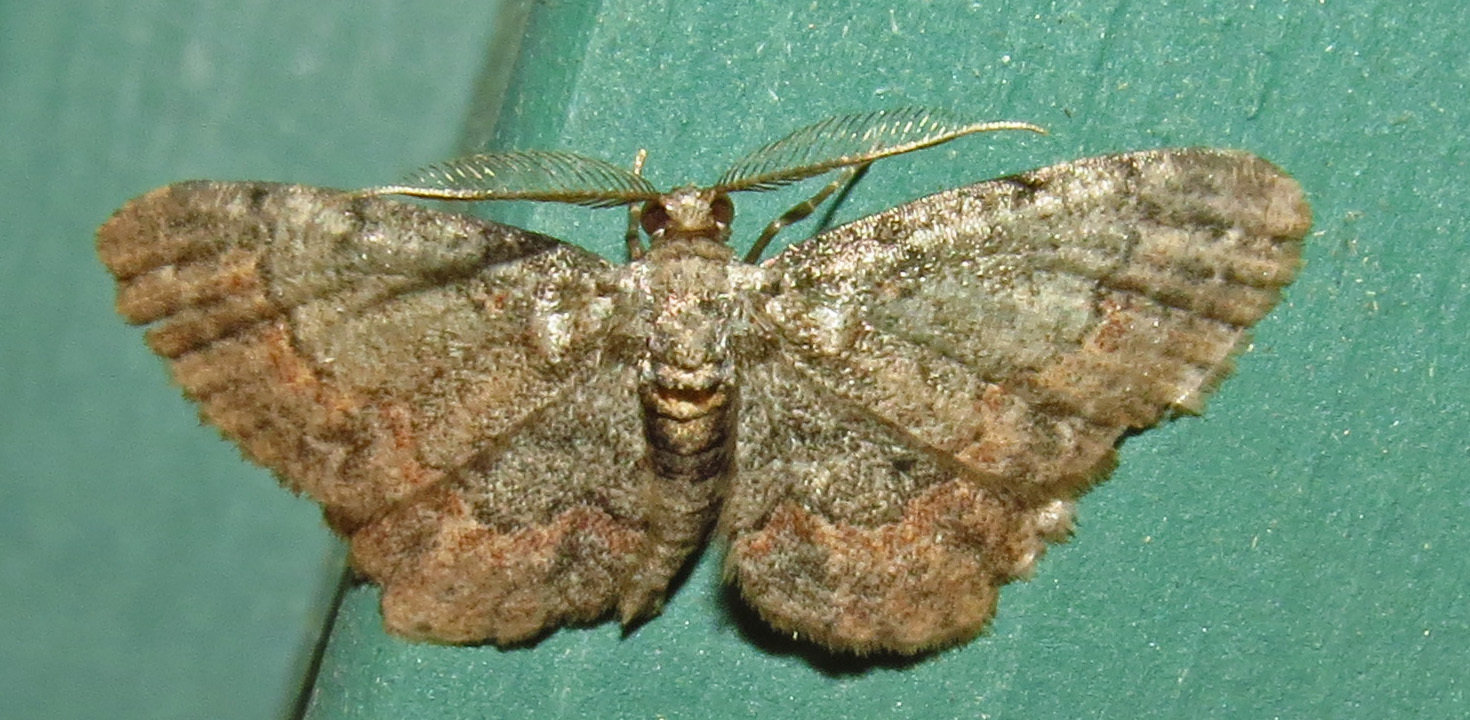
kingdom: Animalia
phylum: Arthropoda
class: Insecta
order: Lepidoptera
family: Geometridae
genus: Glenoides
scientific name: Glenoides texanaria
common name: Texas gray
